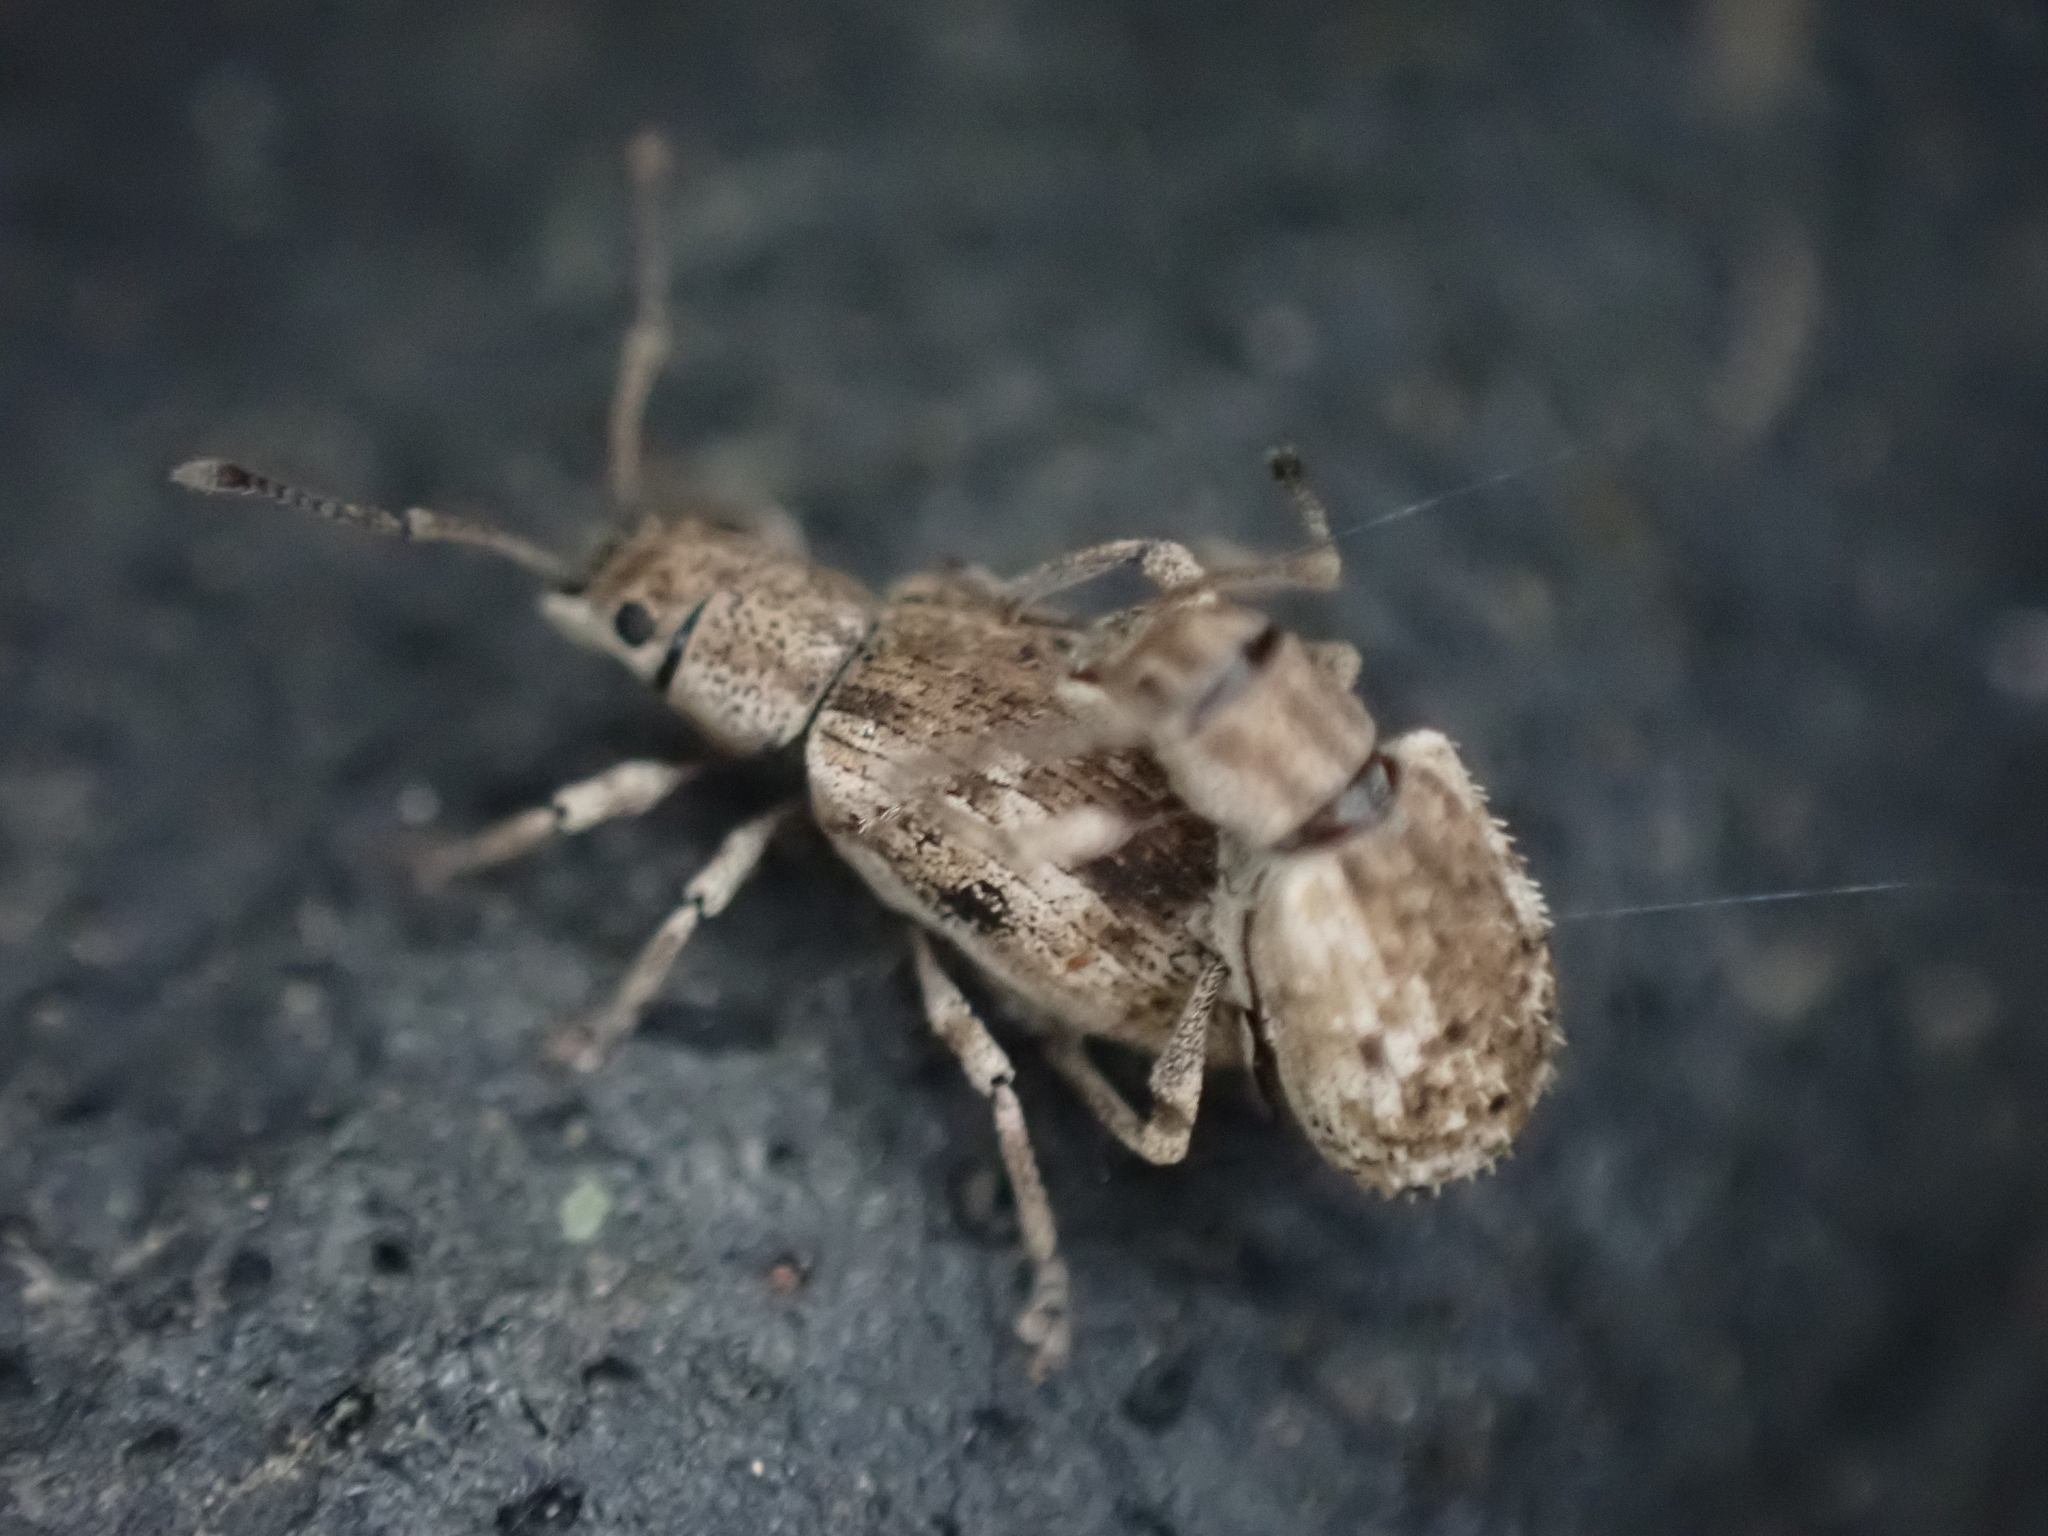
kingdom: Animalia
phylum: Arthropoda
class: Insecta
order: Coleoptera
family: Curculionidae
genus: Pseudoedophrys
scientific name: Pseudoedophrys hilleri
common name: Weevil
